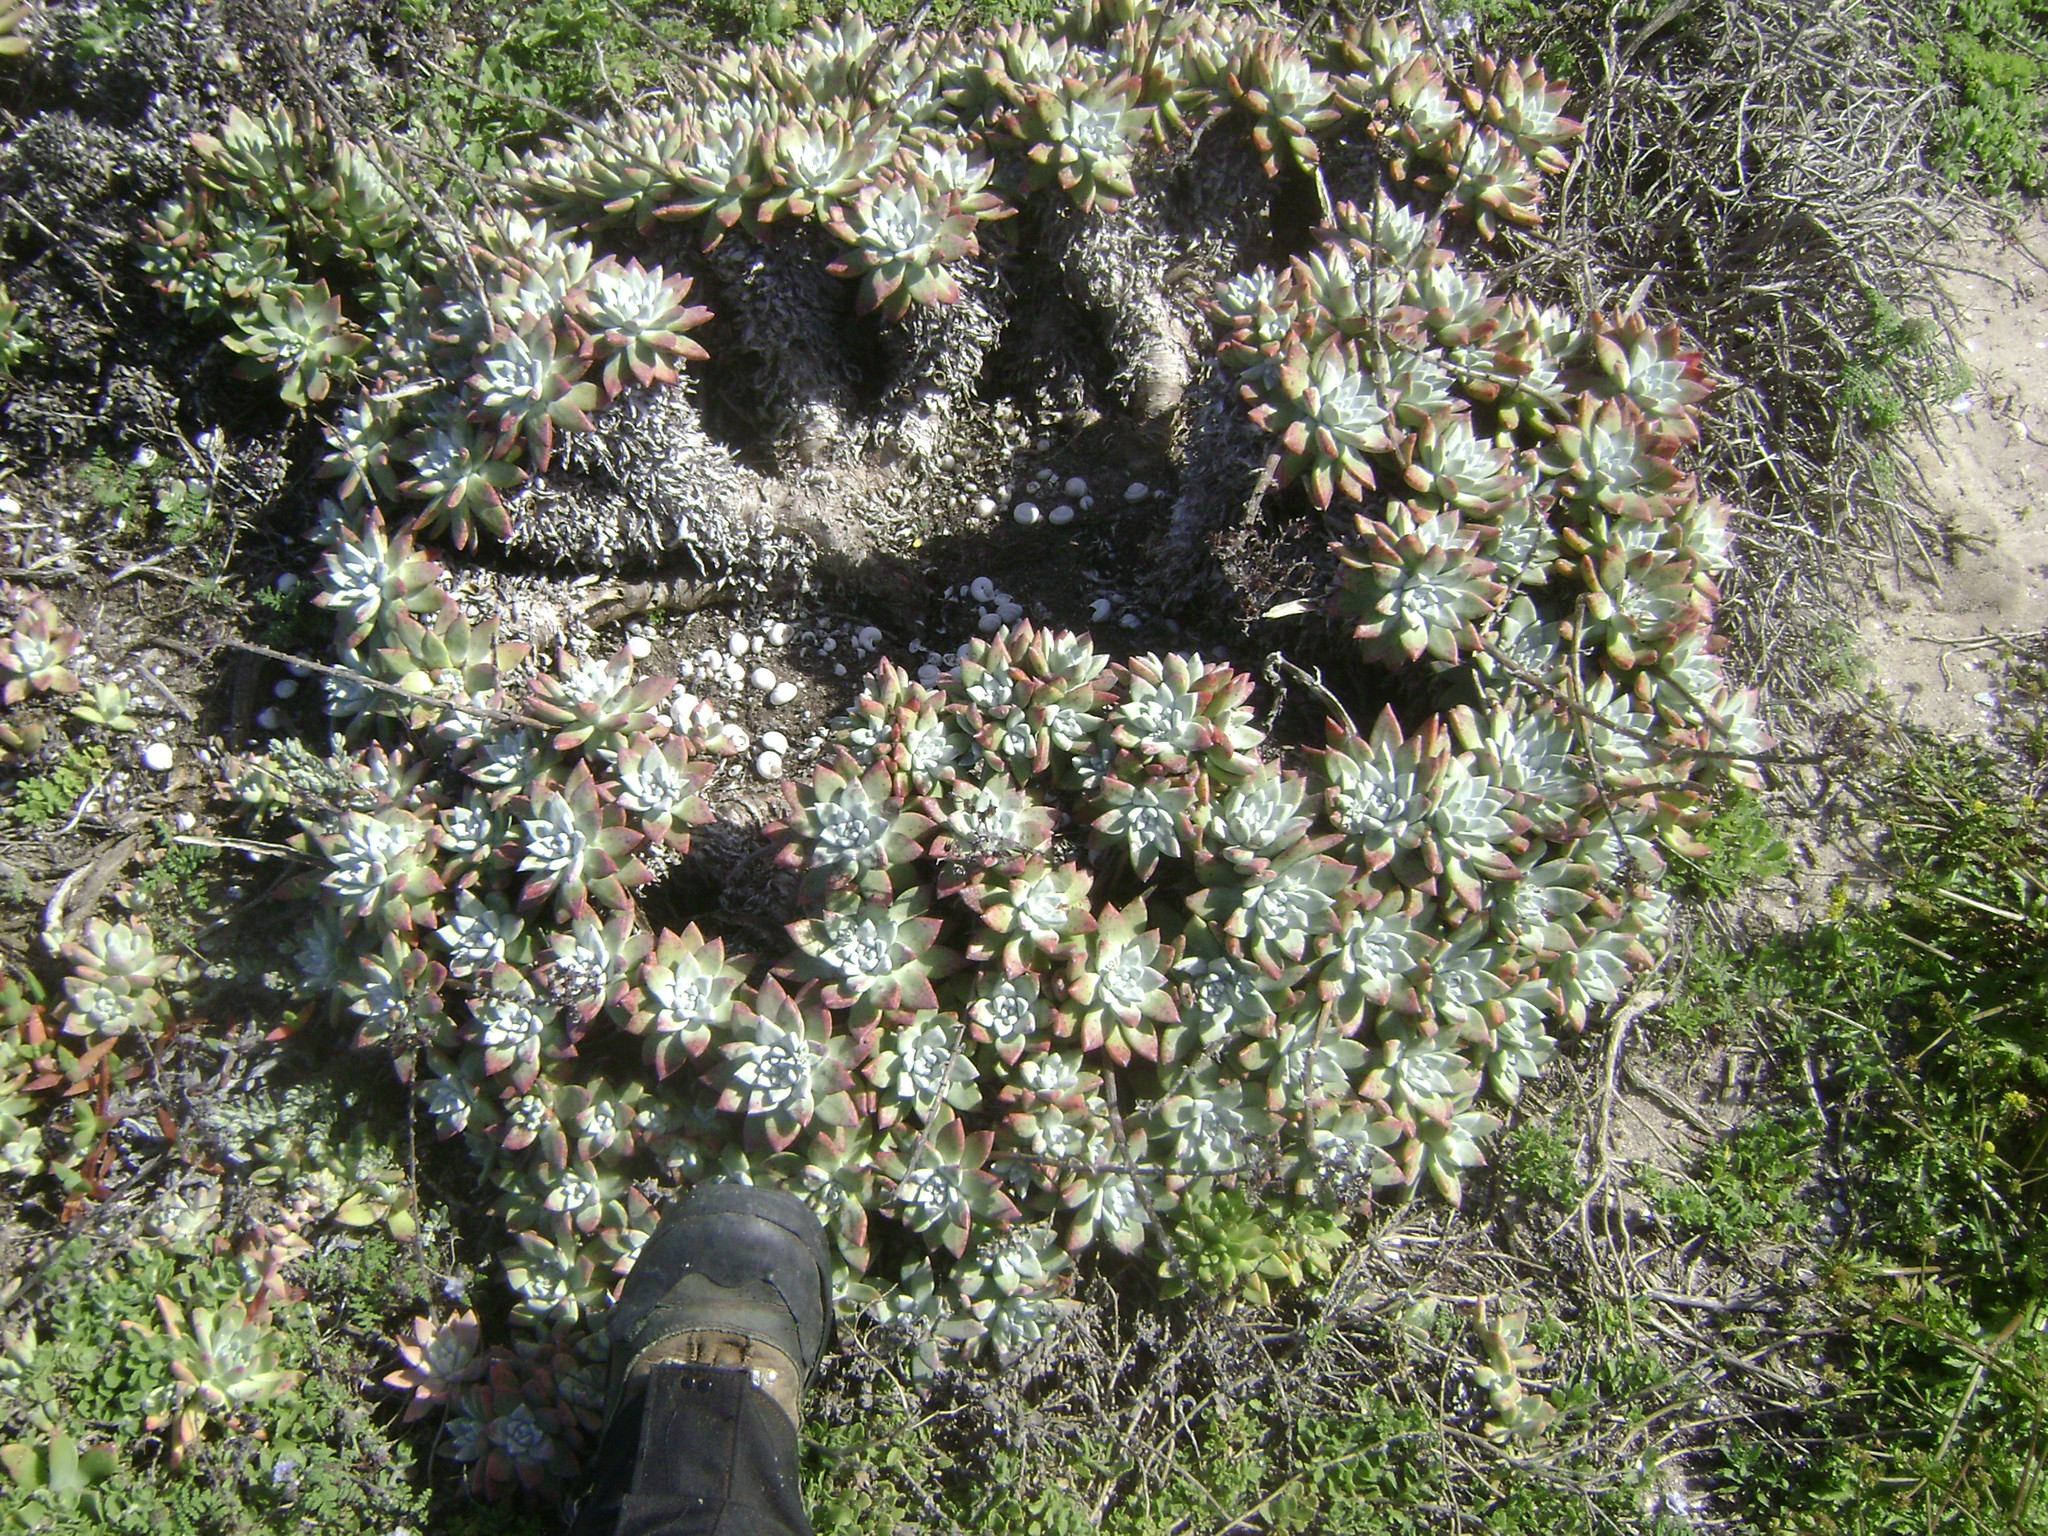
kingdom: Plantae
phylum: Tracheophyta
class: Magnoliopsida
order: Saxifragales
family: Crassulaceae
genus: Dudleya
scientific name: Dudleya greenei
